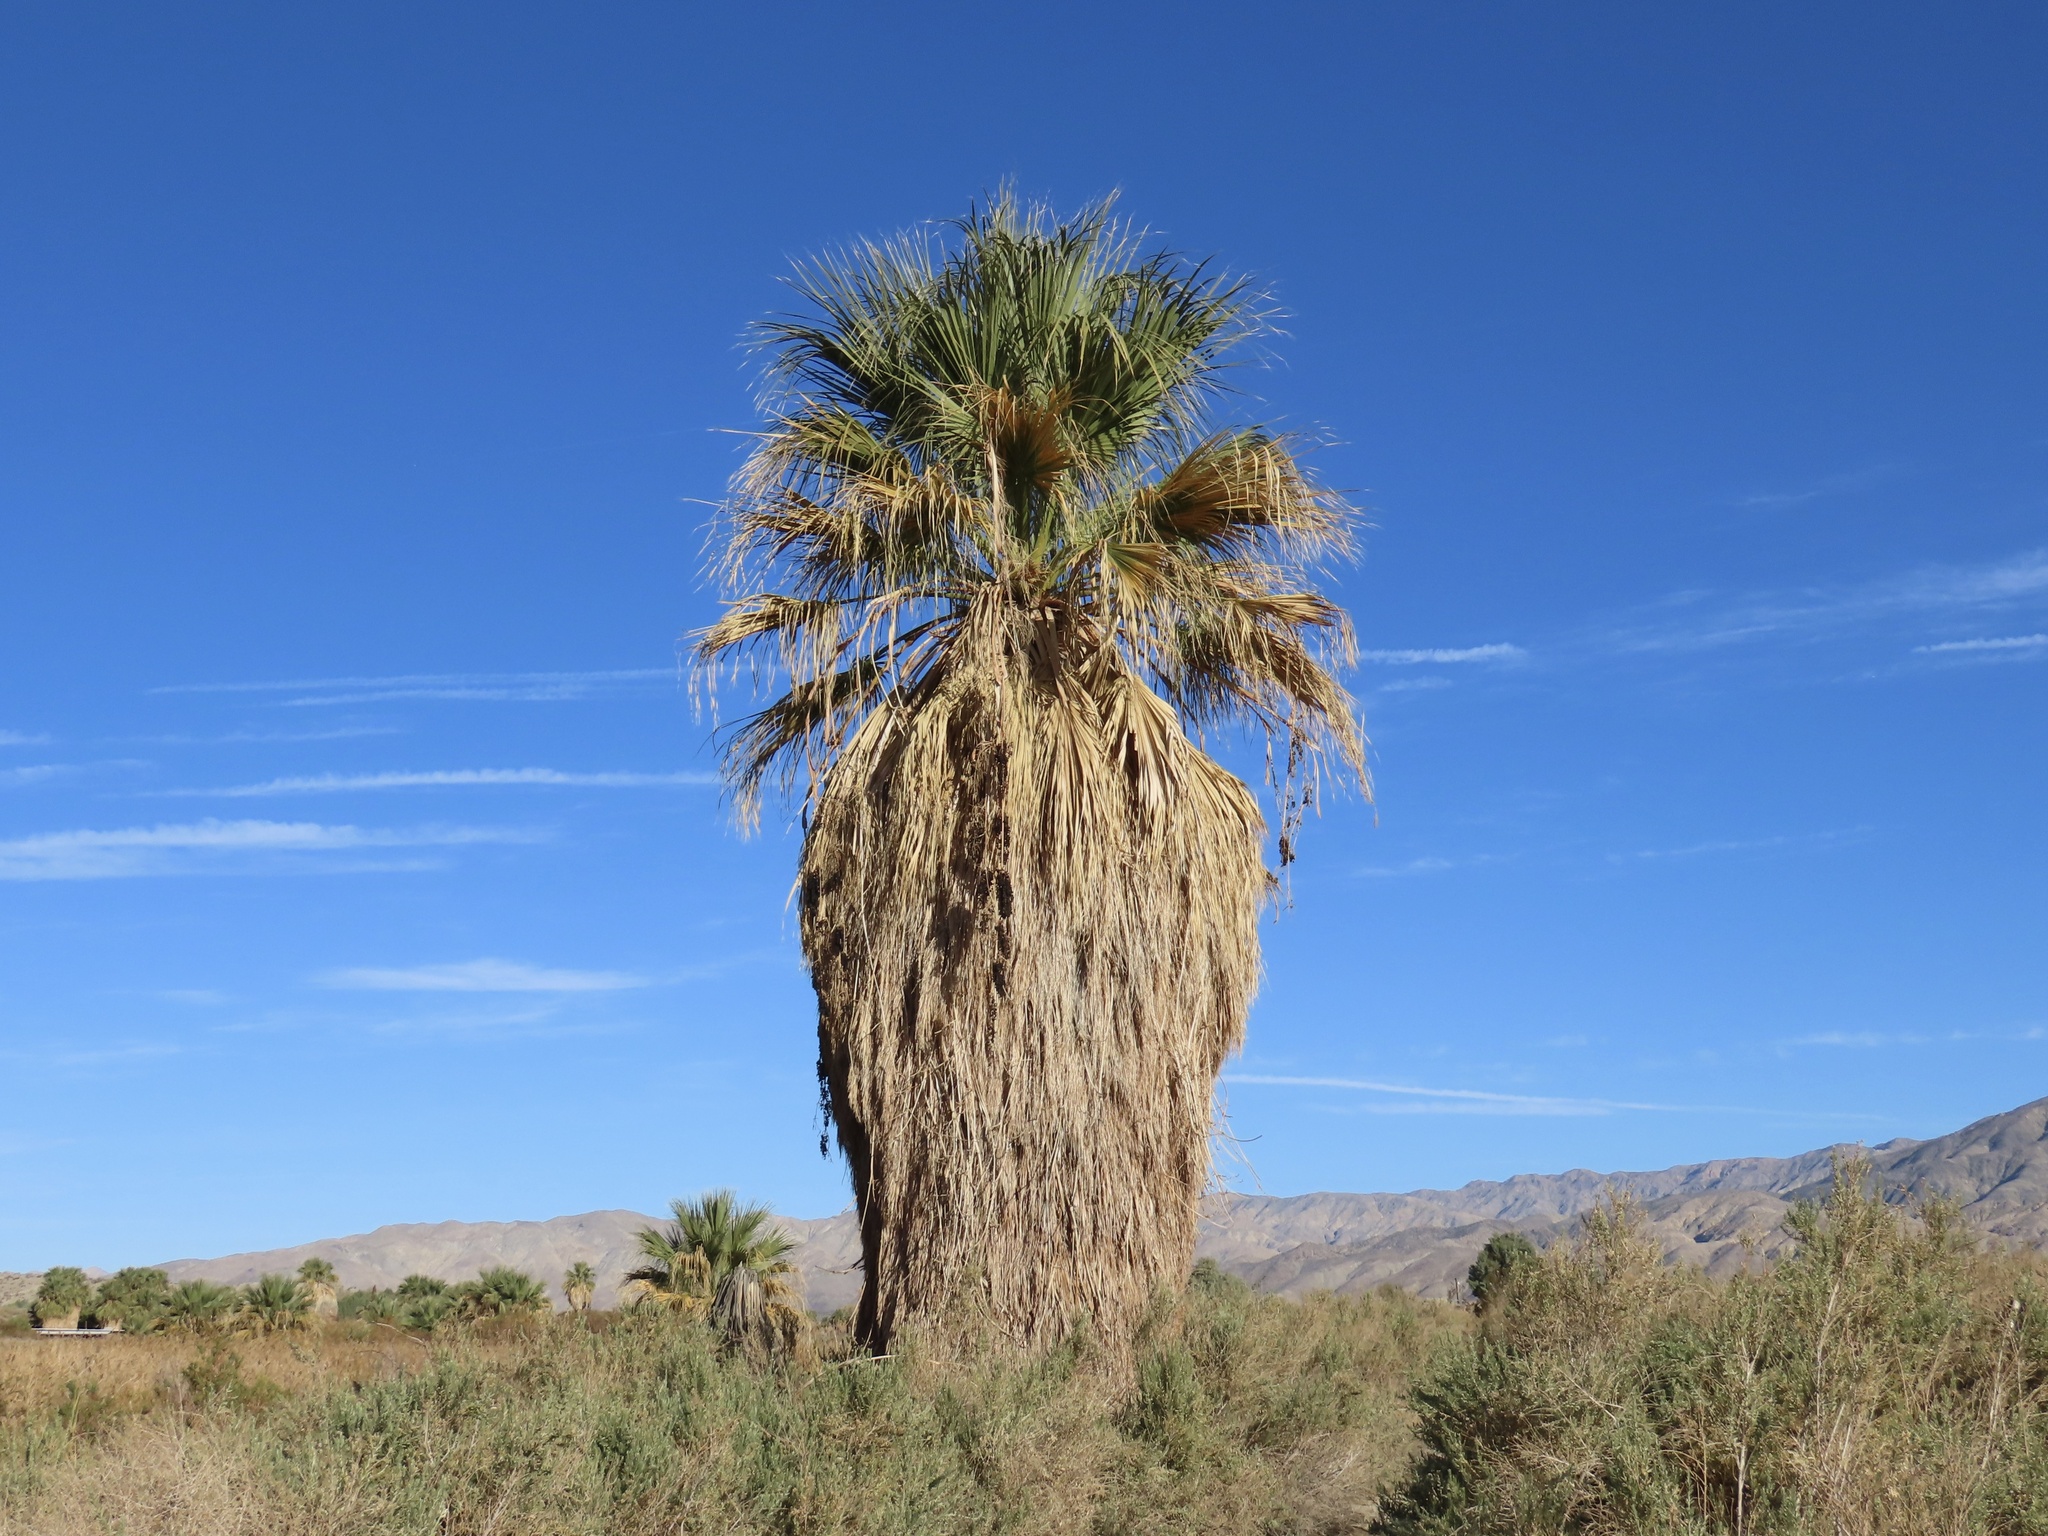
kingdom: Plantae
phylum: Tracheophyta
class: Liliopsida
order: Arecales
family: Arecaceae
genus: Washingtonia
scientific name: Washingtonia filifera
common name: California fan palm
